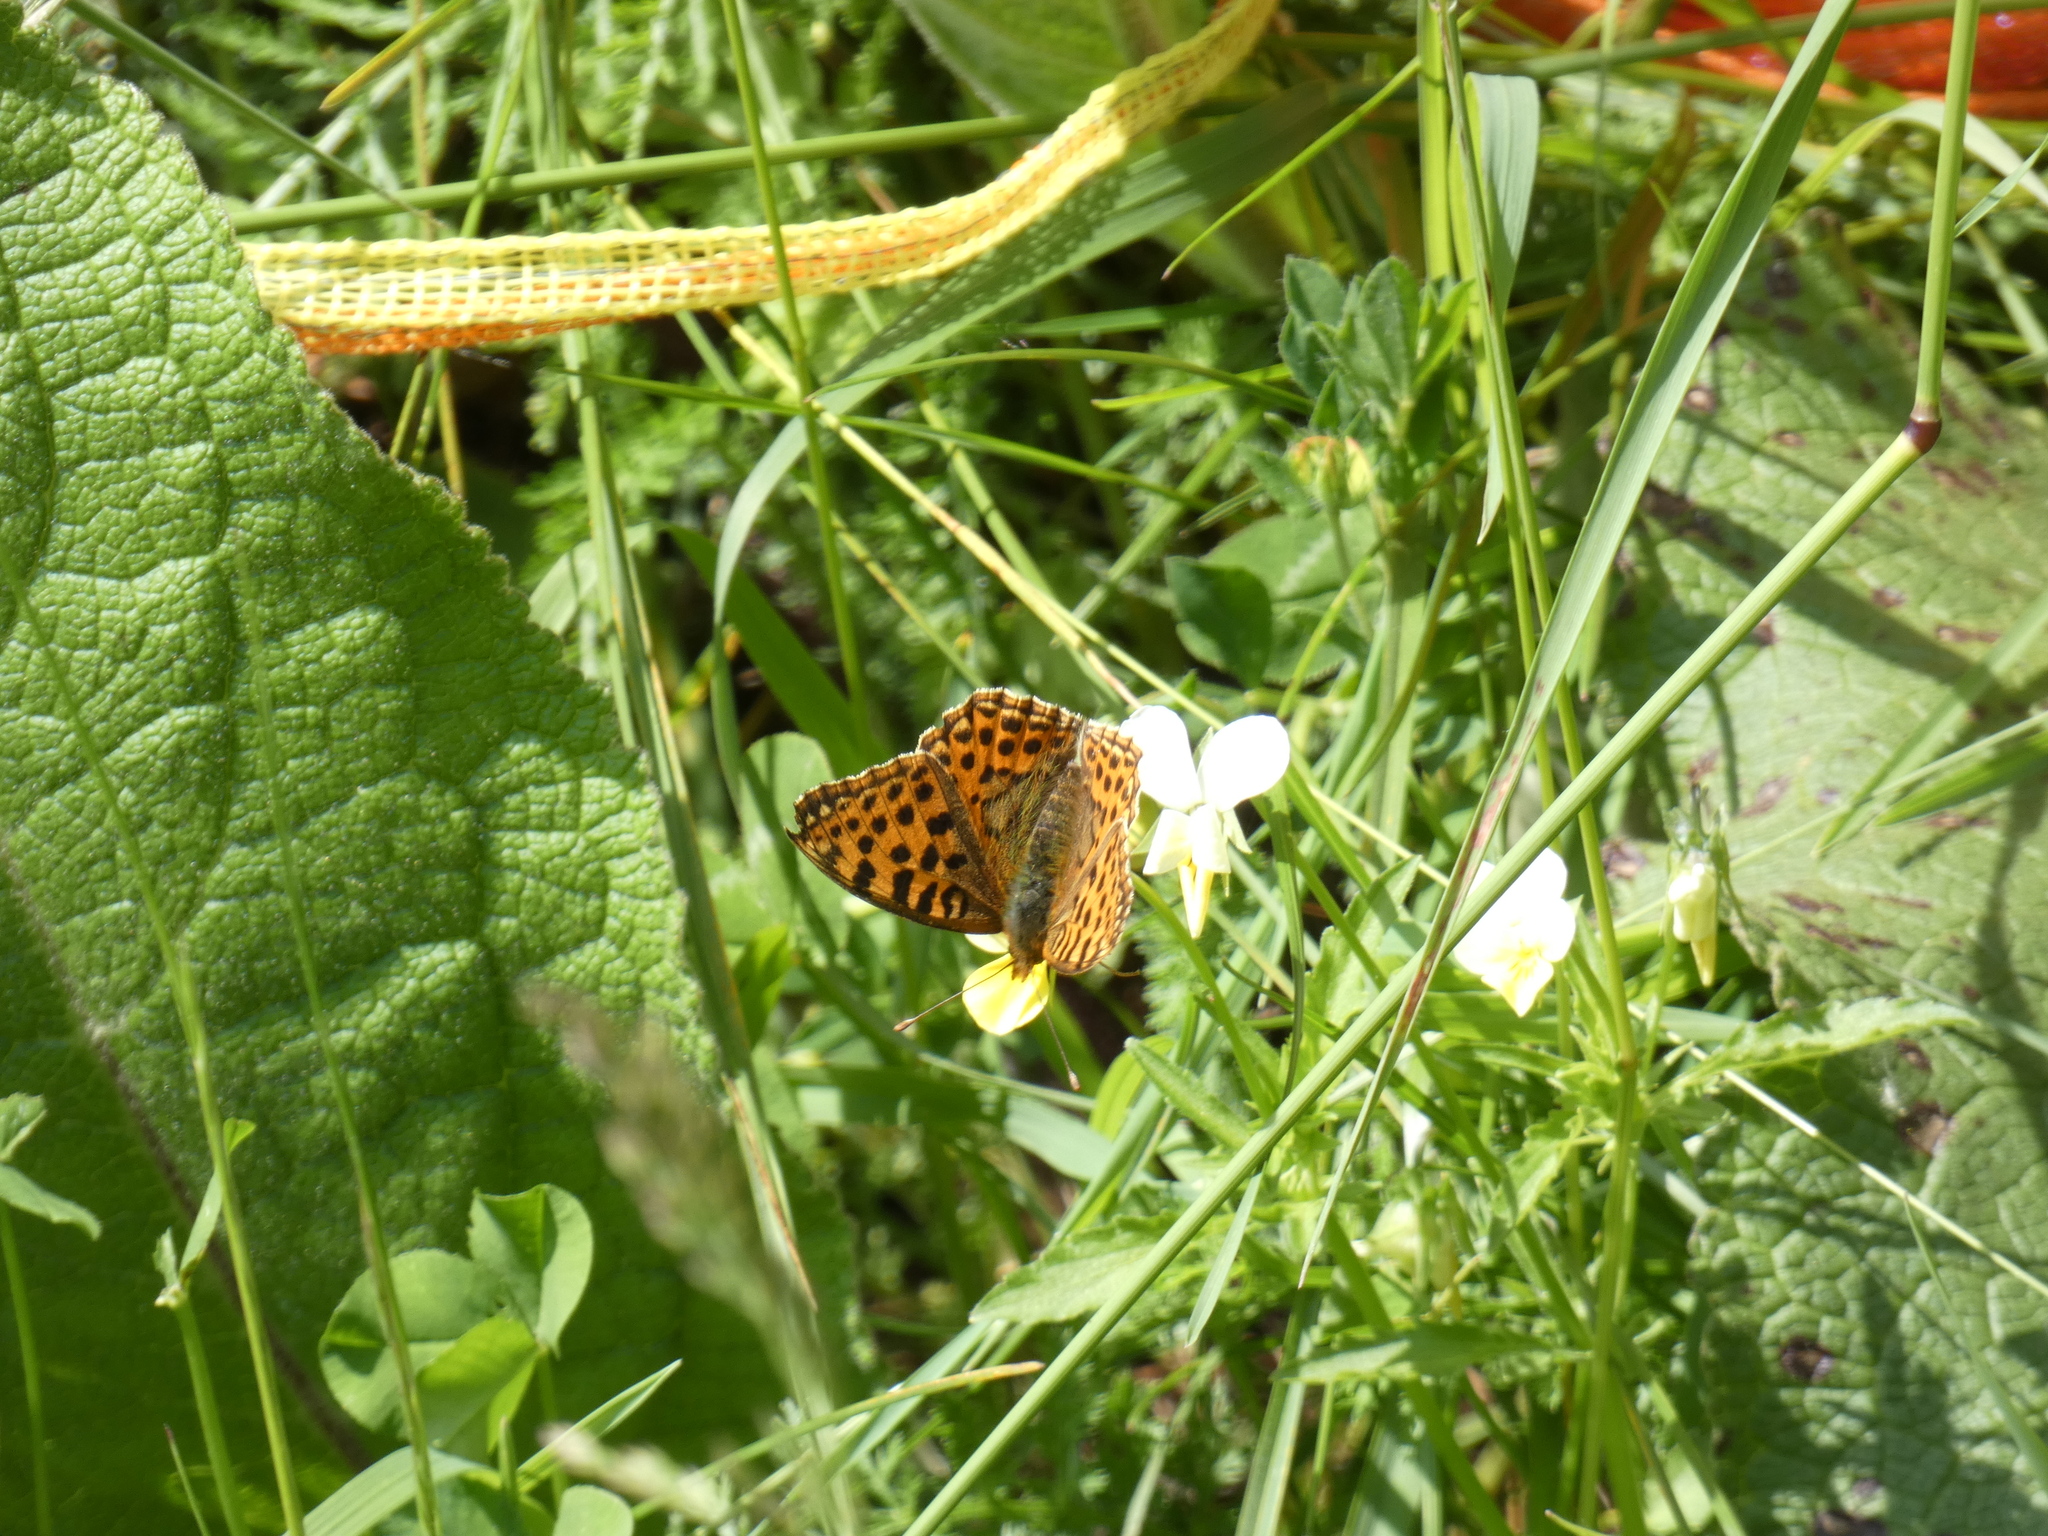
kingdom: Animalia
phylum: Arthropoda
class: Insecta
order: Lepidoptera
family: Nymphalidae
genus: Issoria
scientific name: Issoria lathonia
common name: Queen of spain fritillary
